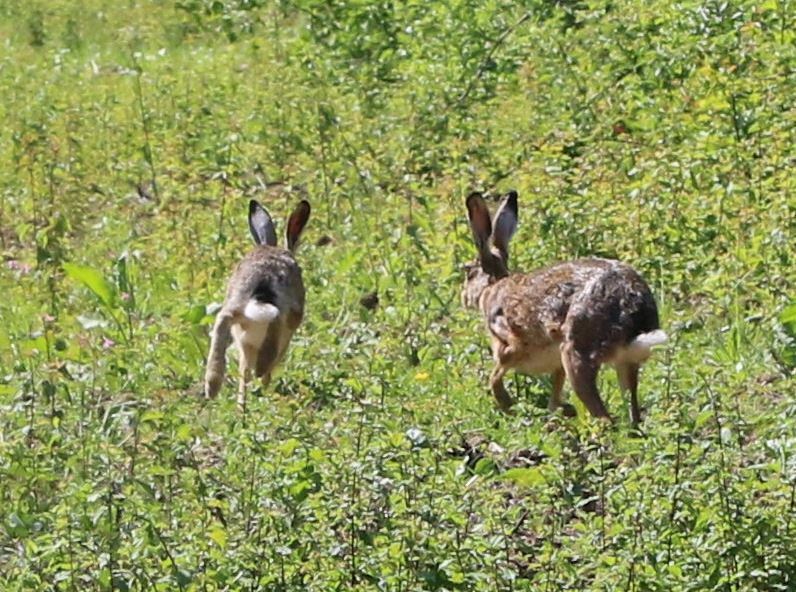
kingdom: Animalia
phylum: Chordata
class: Mammalia
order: Lagomorpha
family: Leporidae
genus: Lepus
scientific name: Lepus europaeus
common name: European hare
